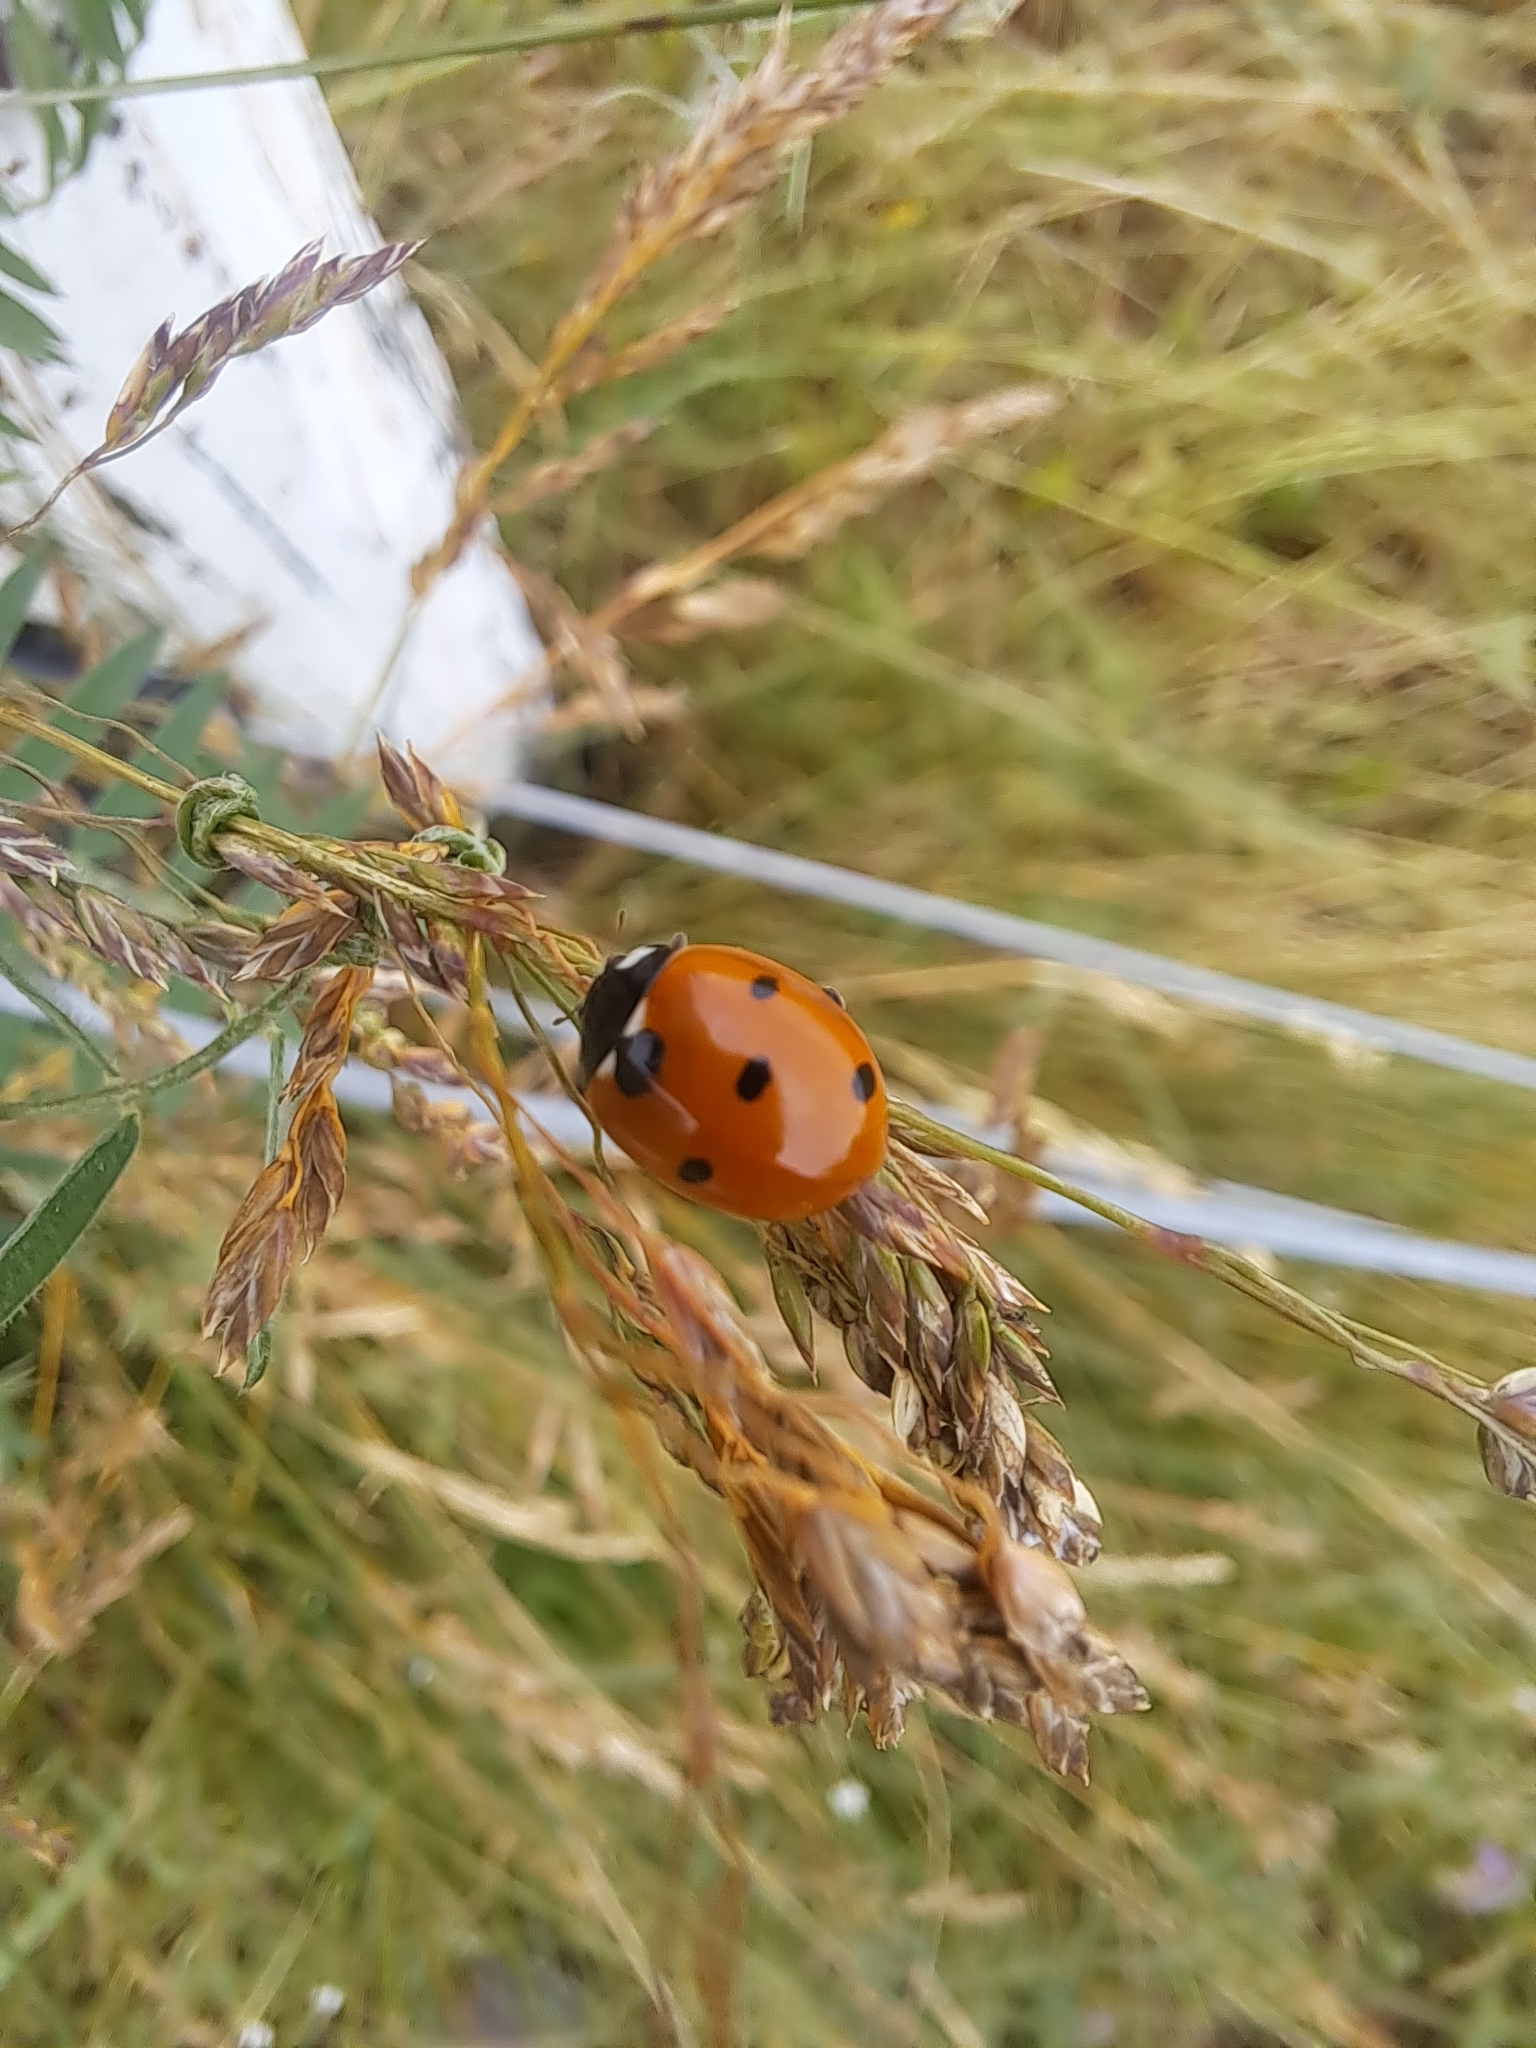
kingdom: Animalia
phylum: Arthropoda
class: Insecta
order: Coleoptera
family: Coccinellidae
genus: Coccinella
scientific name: Coccinella septempunctata
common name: Sevenspotted lady beetle
